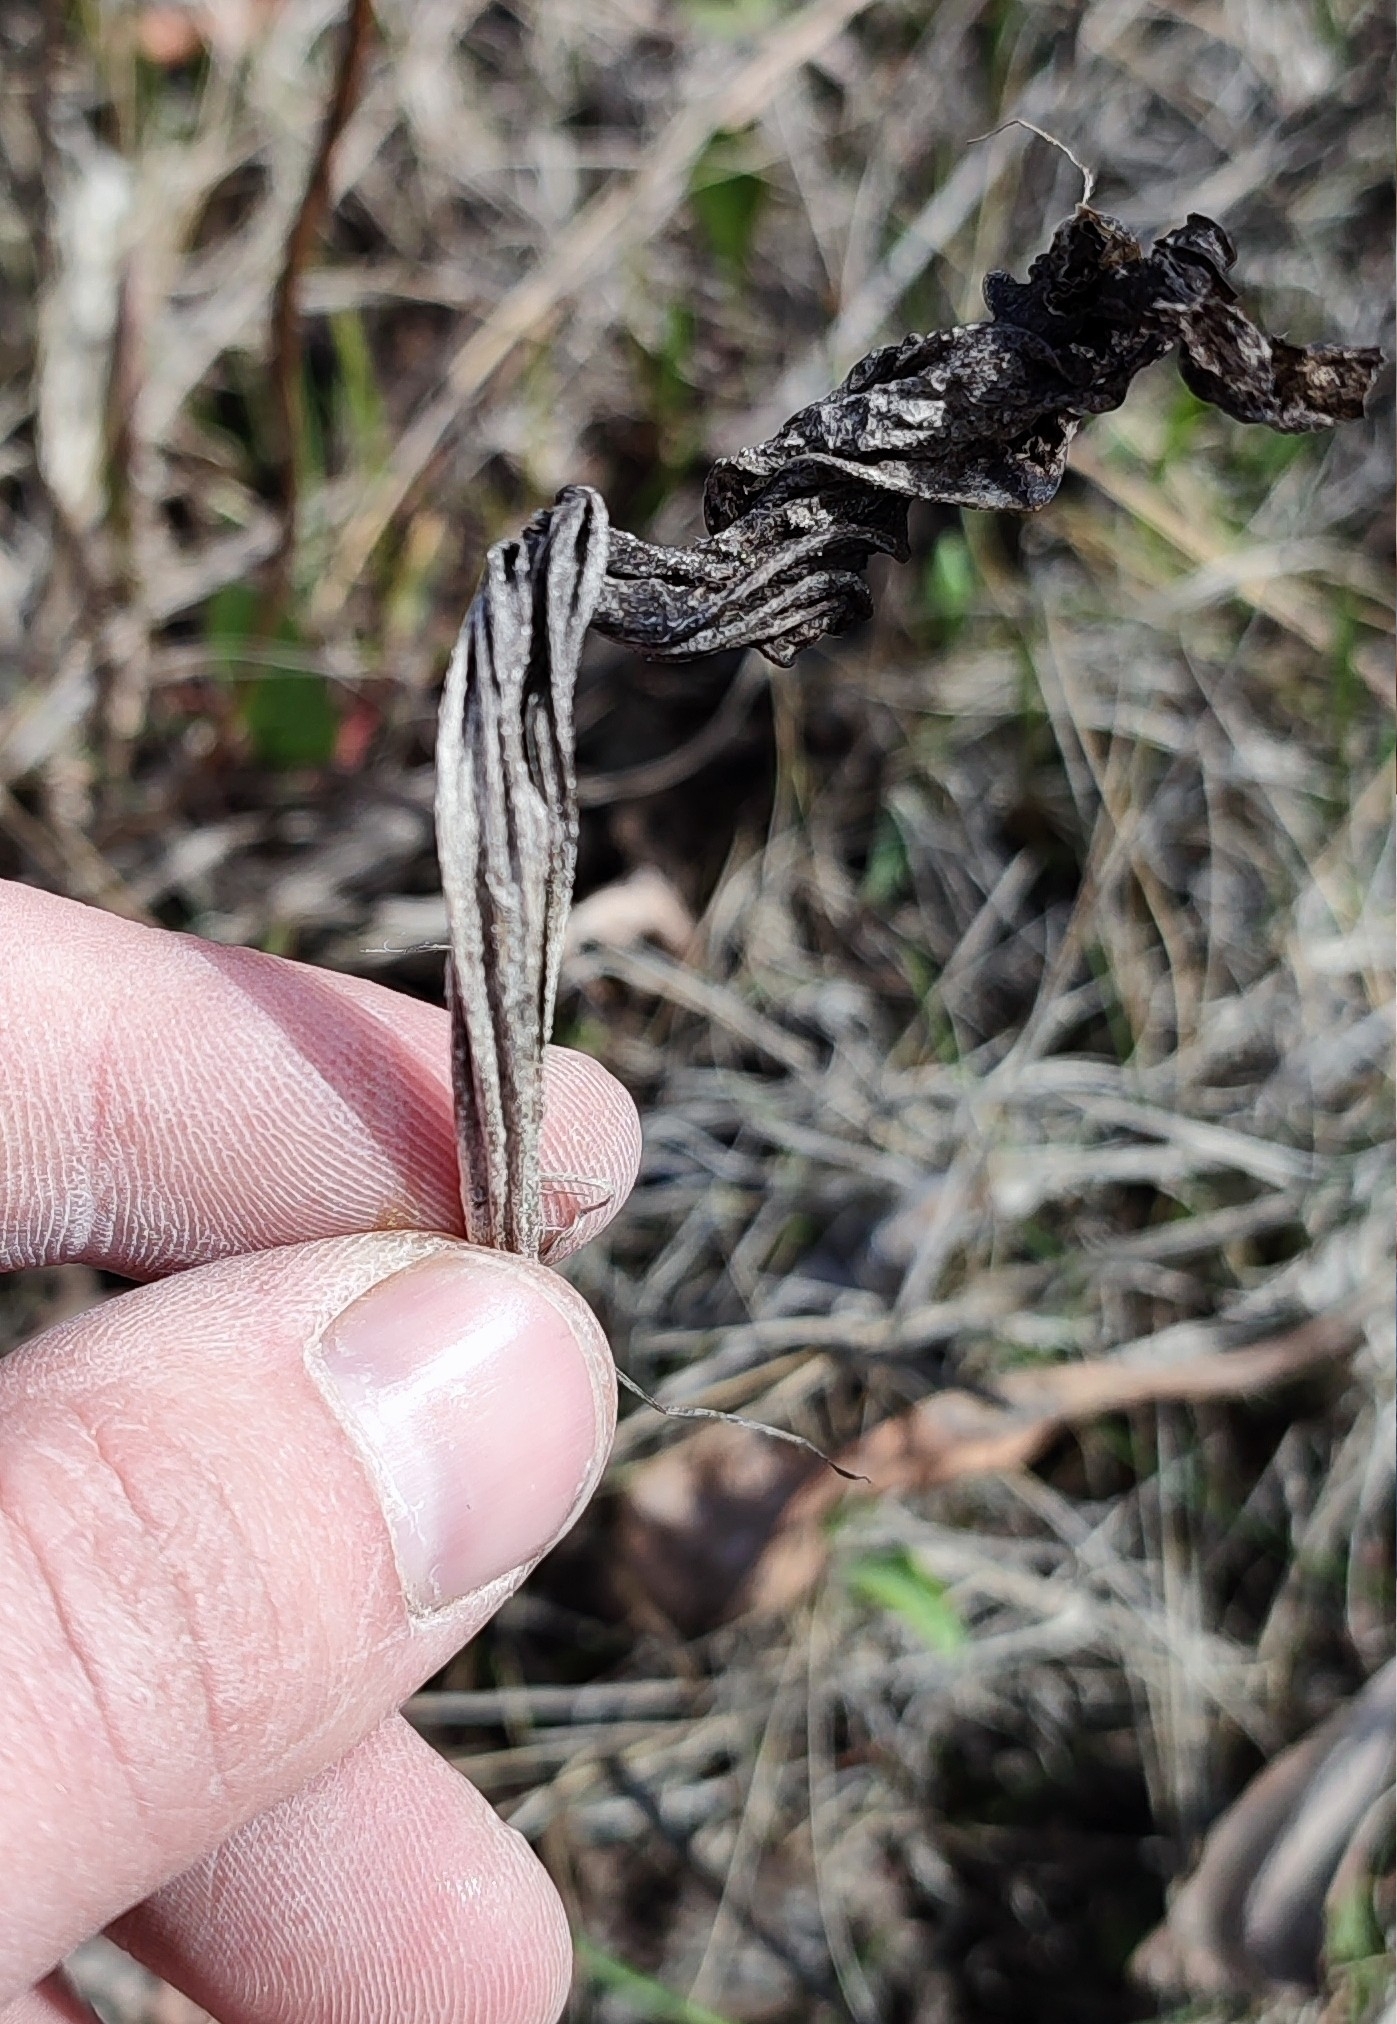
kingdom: Plantae
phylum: Tracheophyta
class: Magnoliopsida
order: Lamiales
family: Plantaginaceae
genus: Plantago
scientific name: Plantago salsa
